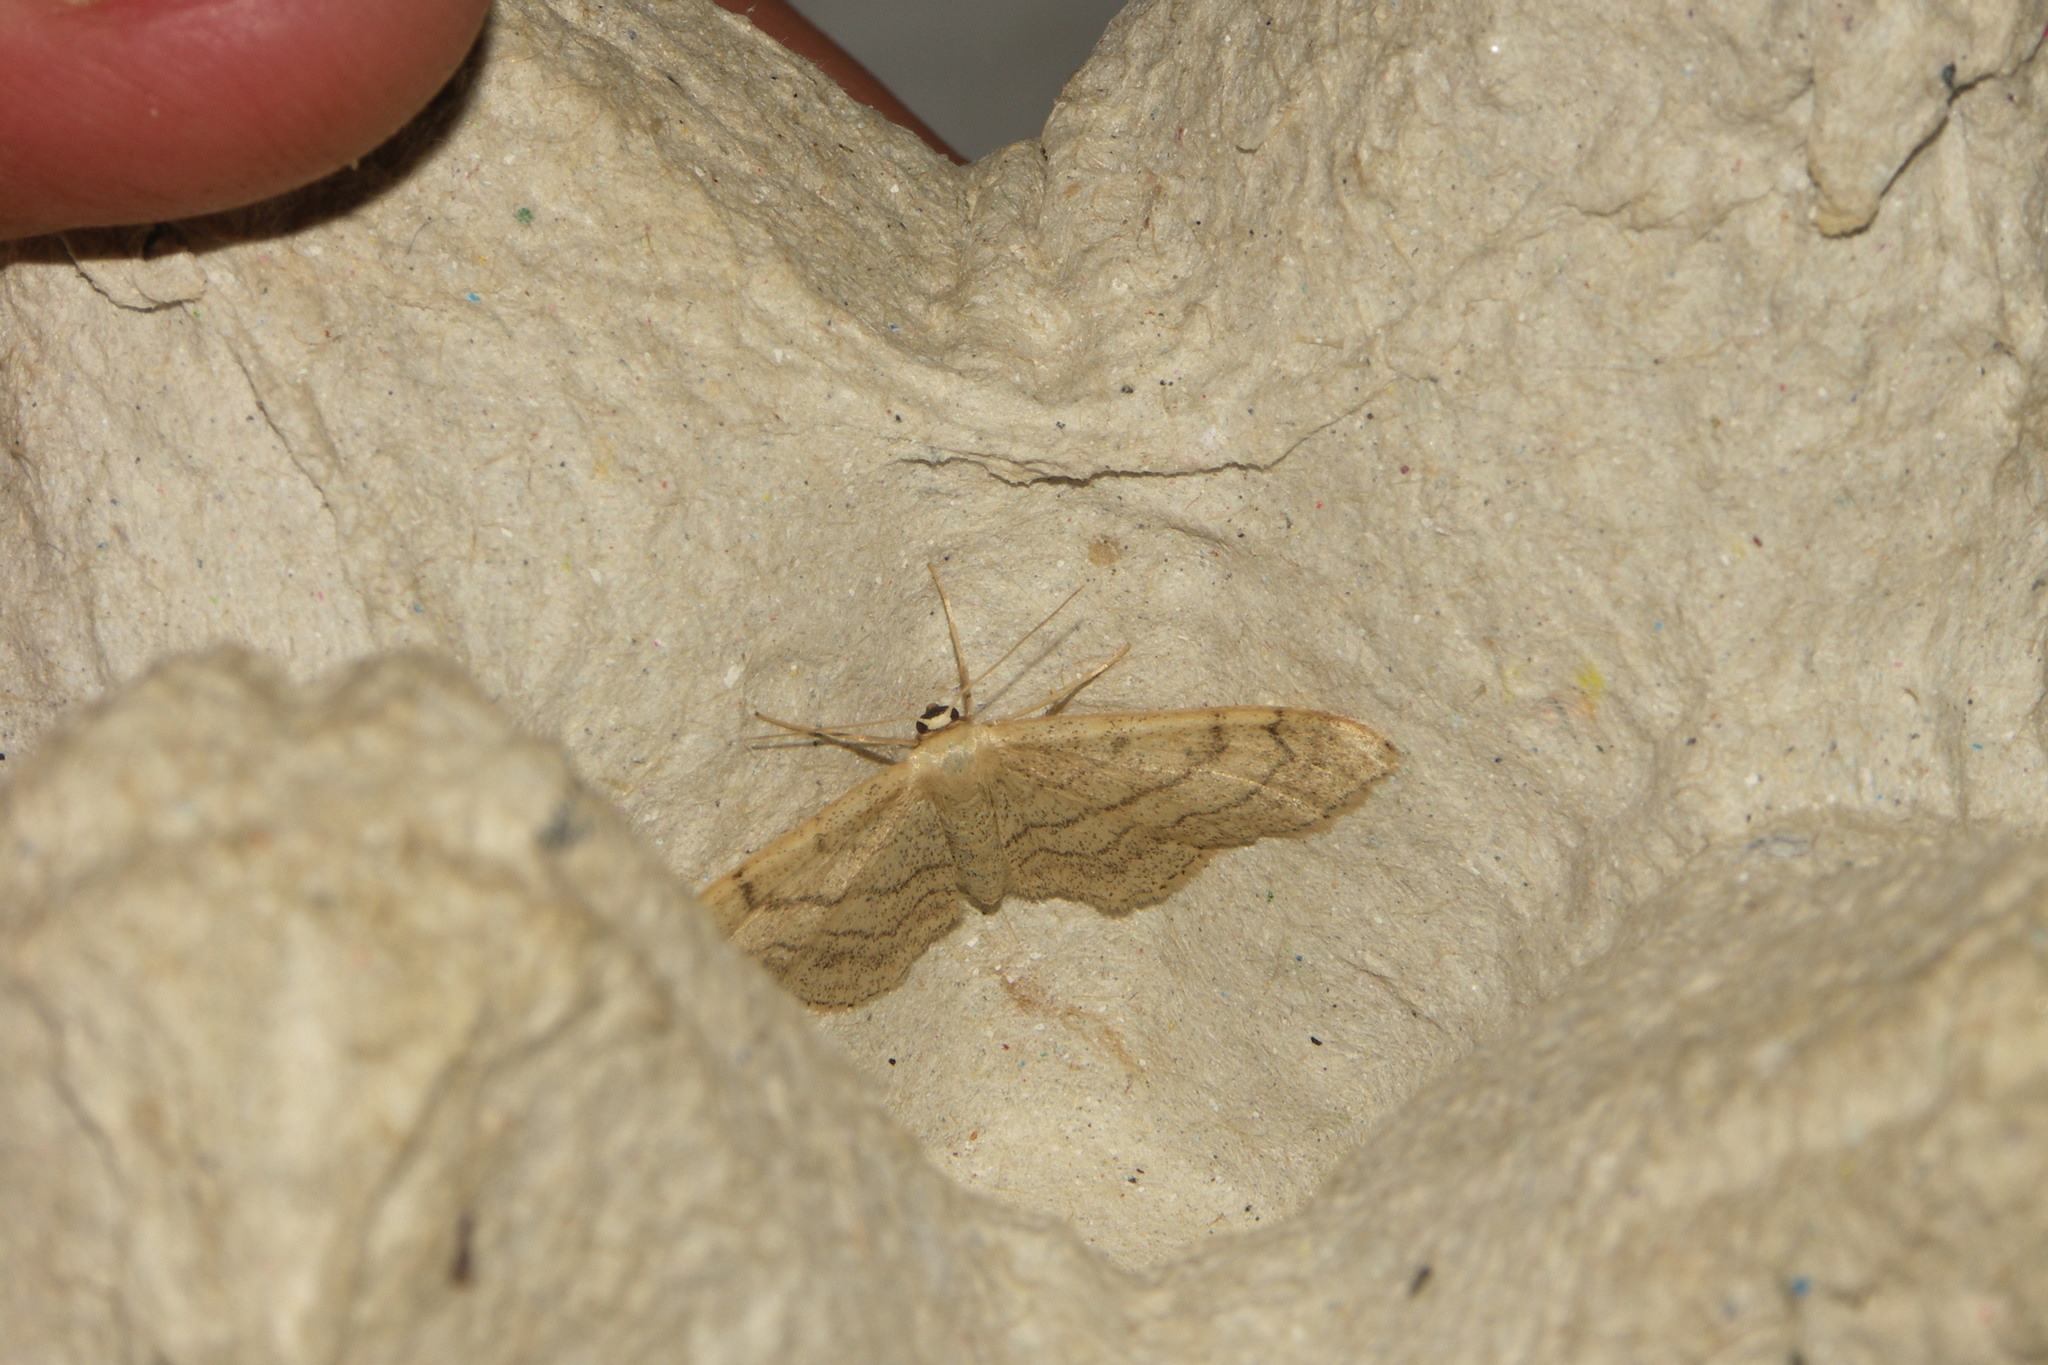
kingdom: Animalia
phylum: Arthropoda
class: Insecta
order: Lepidoptera
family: Geometridae
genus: Idaea
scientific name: Idaea aversata
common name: Riband wave
